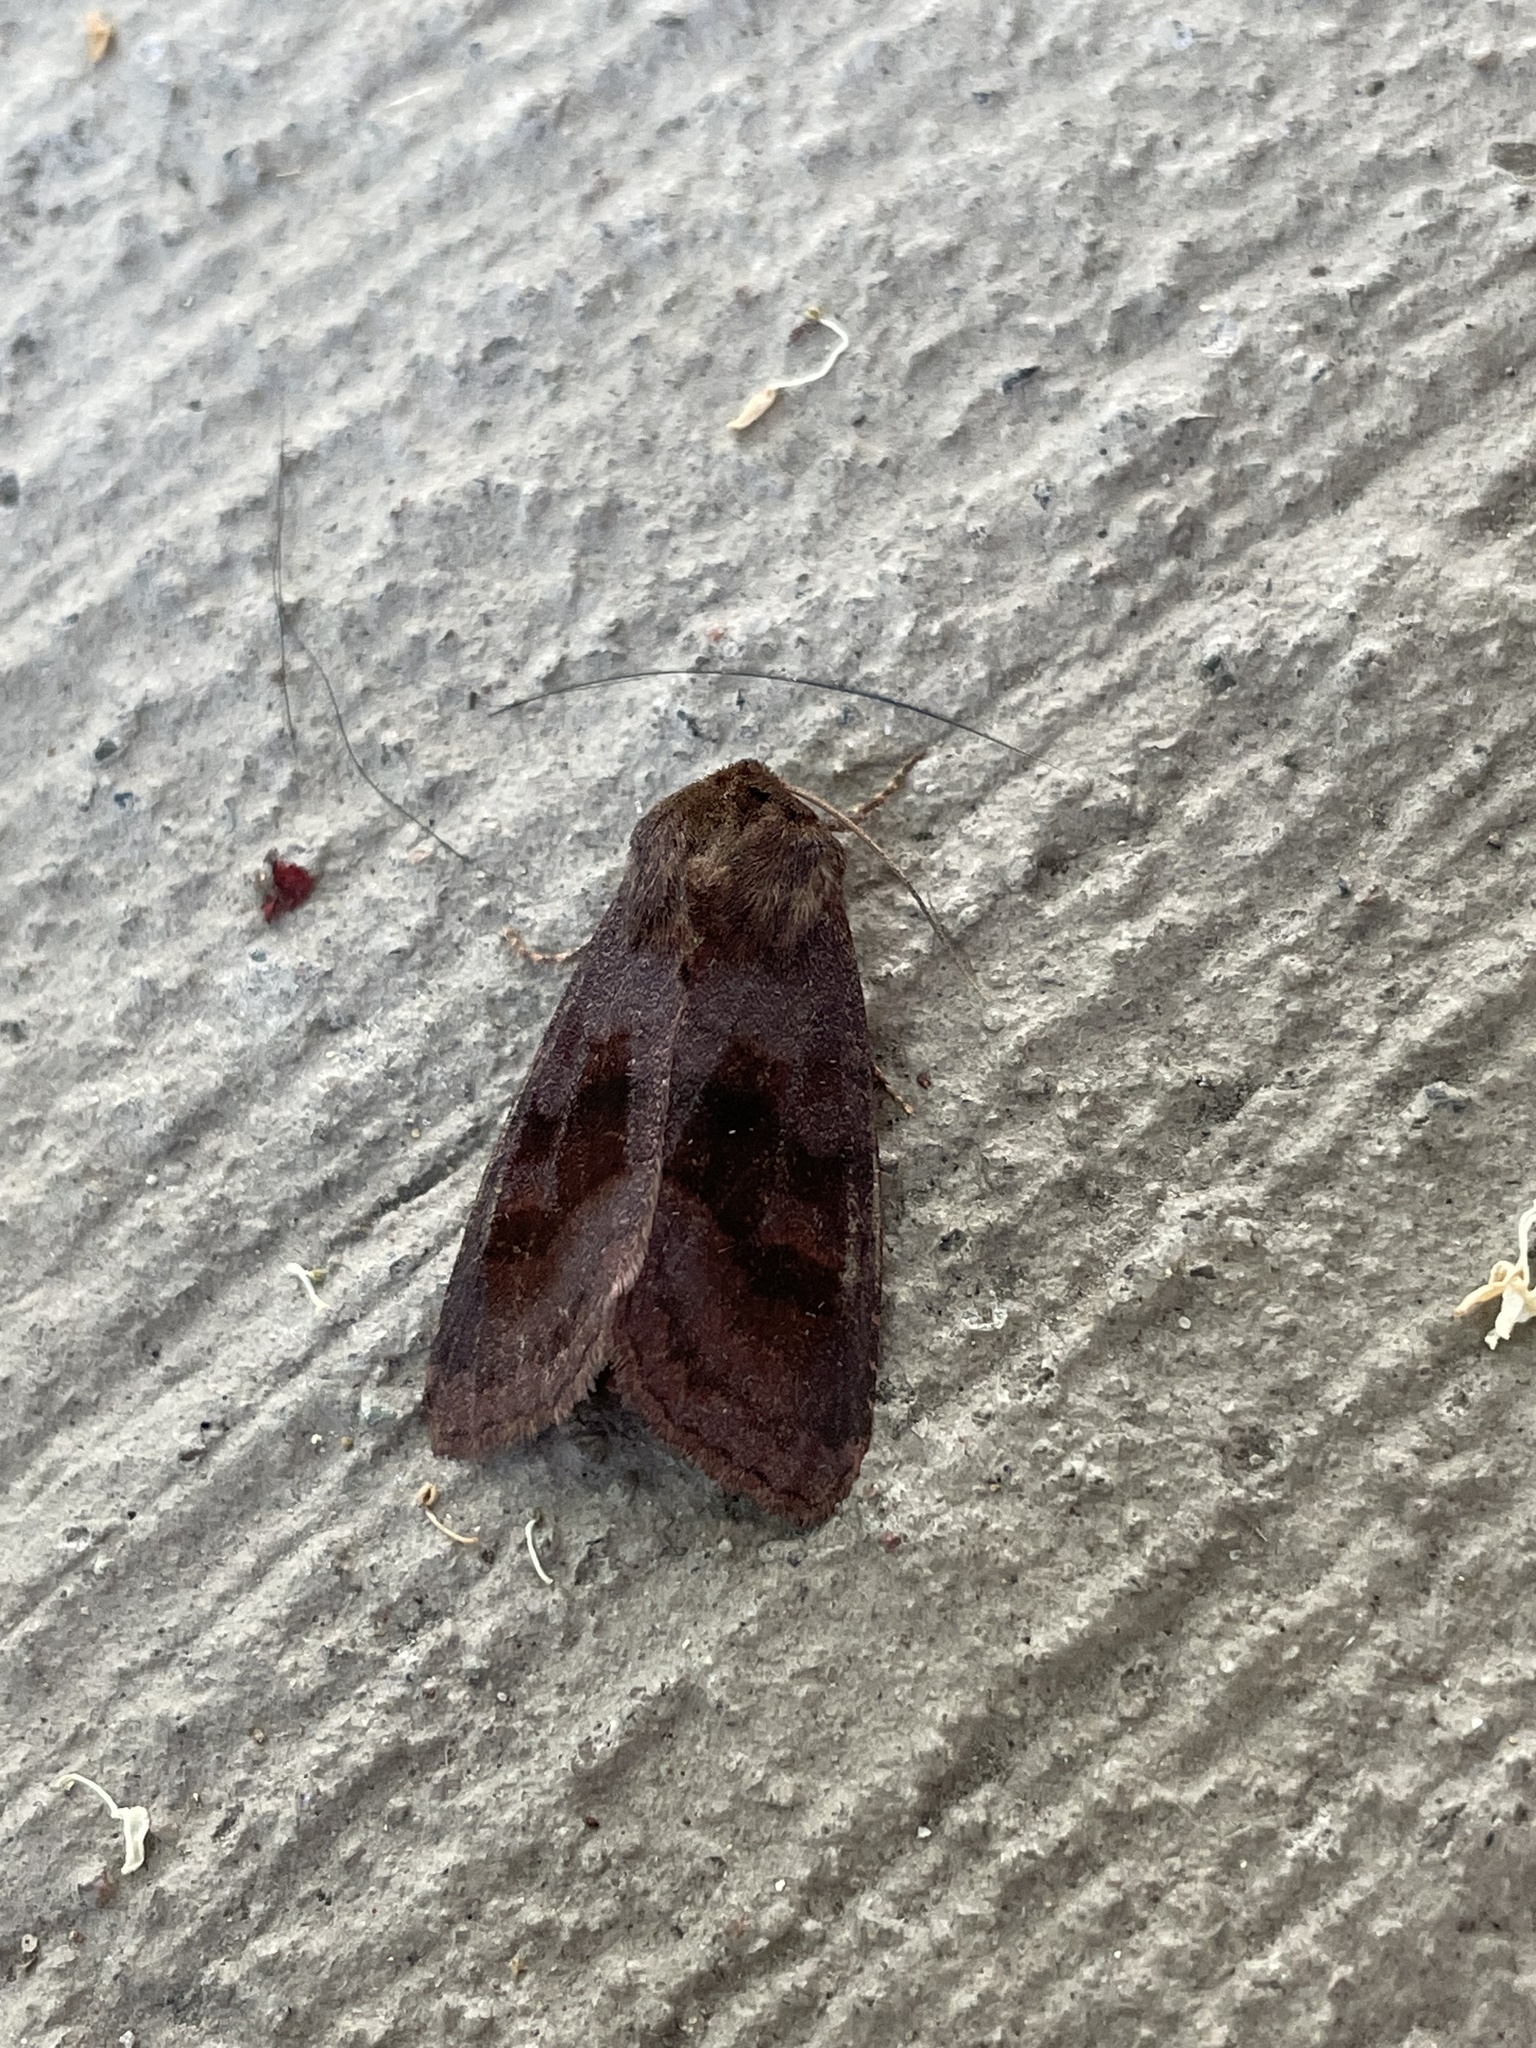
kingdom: Animalia
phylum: Arthropoda
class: Insecta
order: Lepidoptera
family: Noctuidae
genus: Nephelodes
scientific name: Nephelodes minians
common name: Bronzed cutworm
